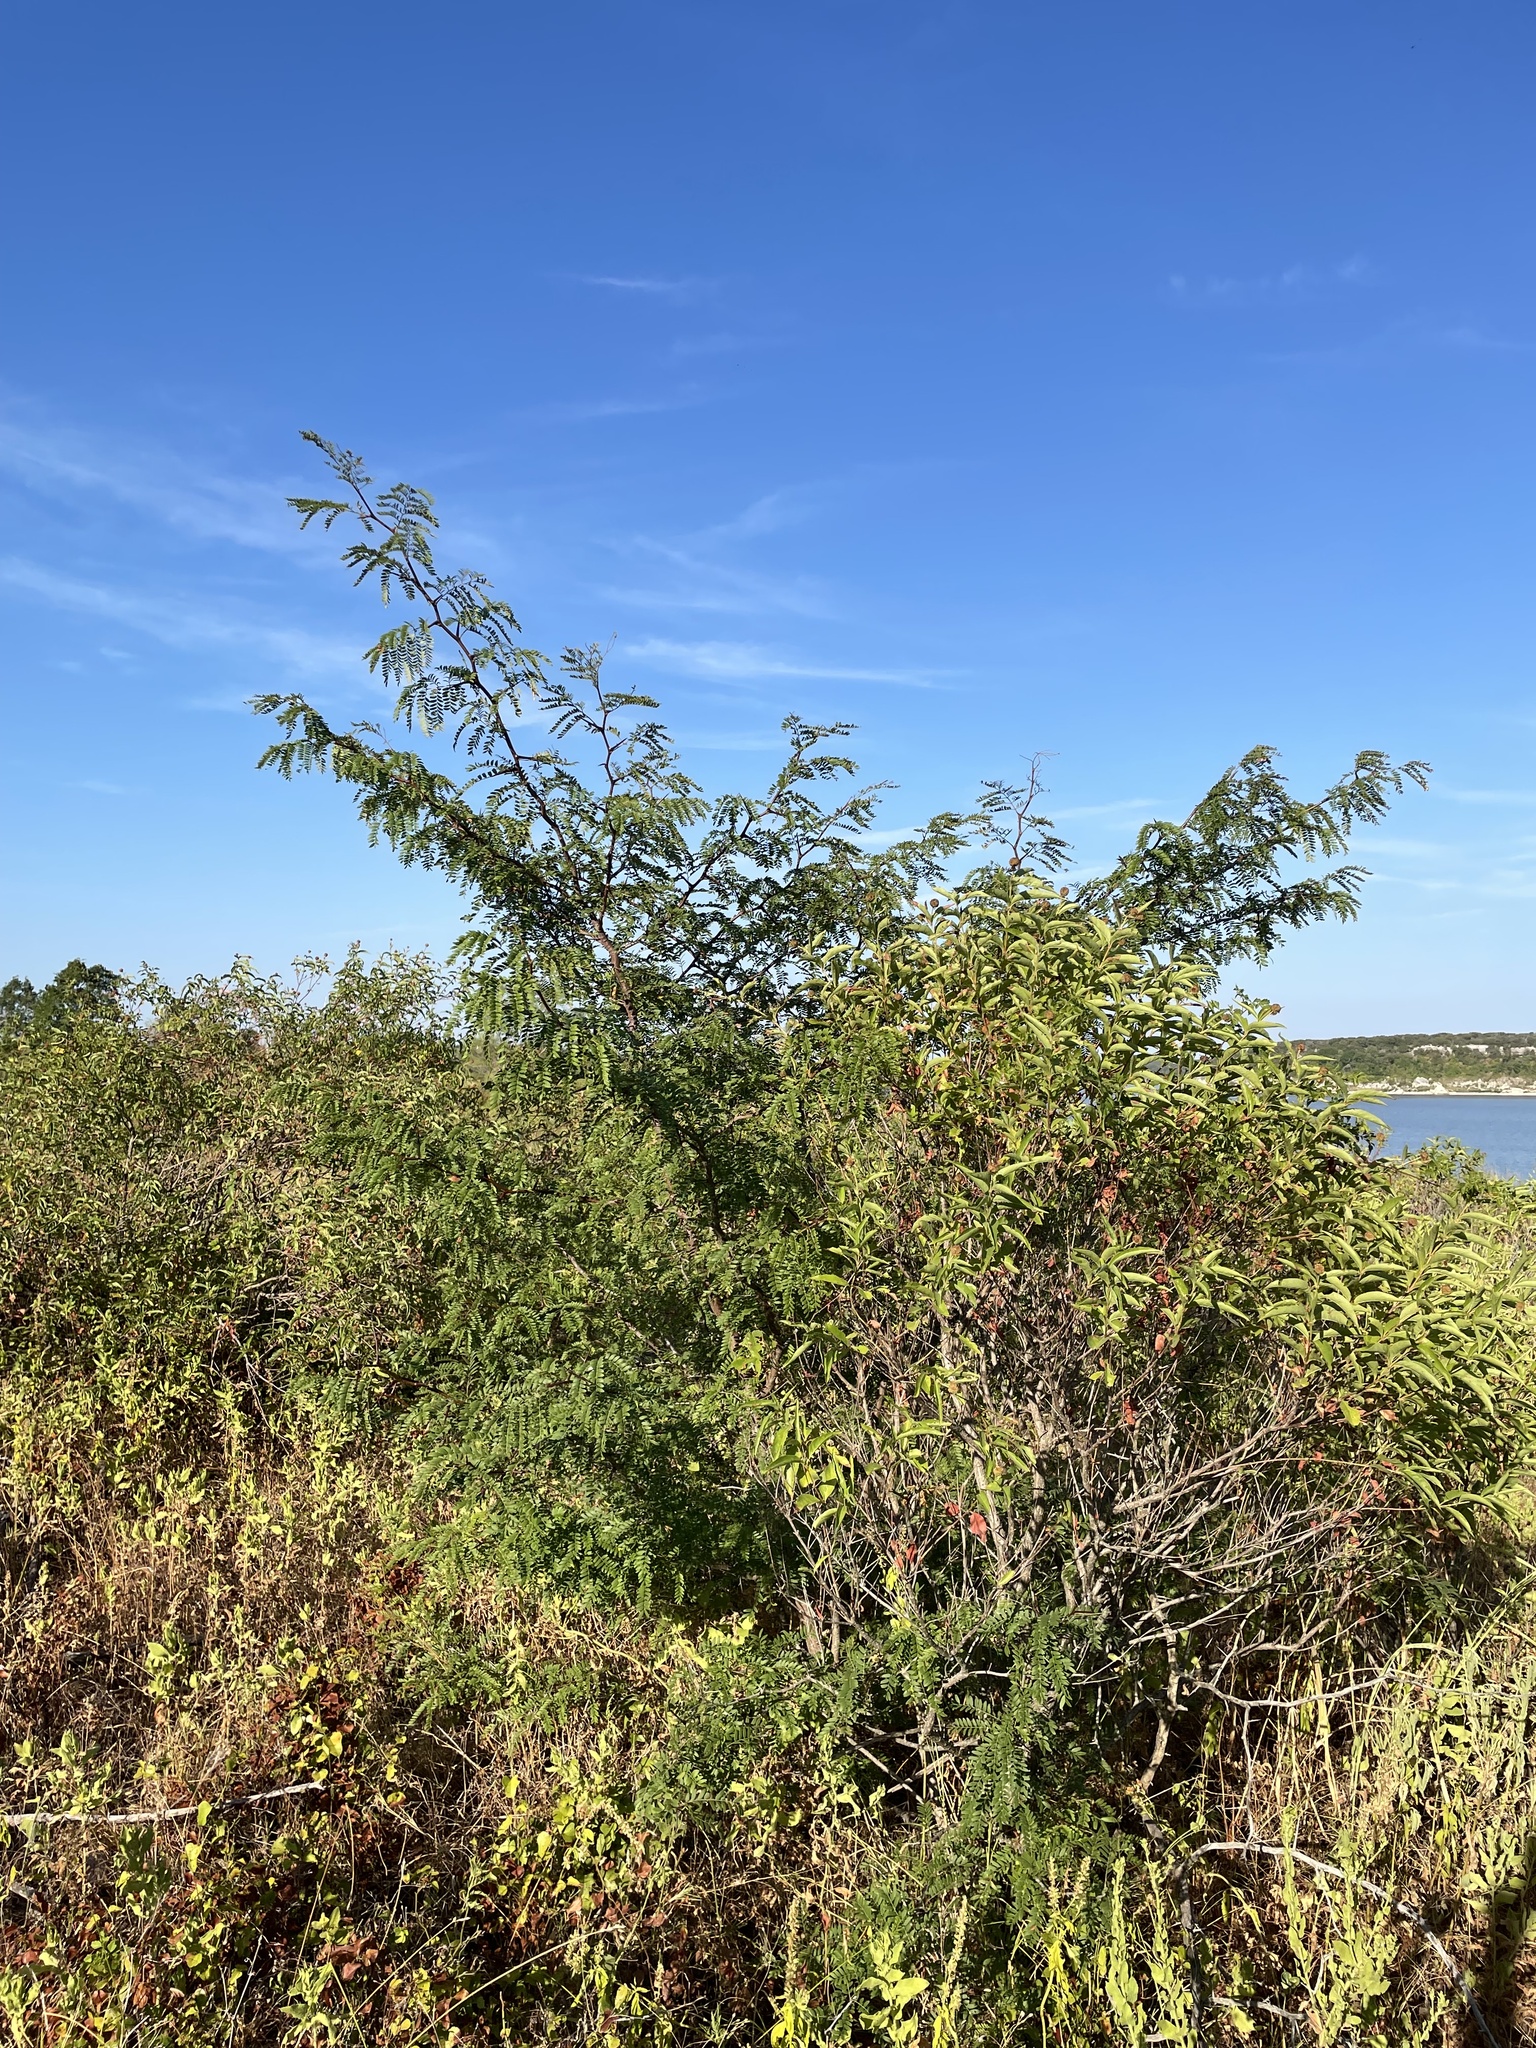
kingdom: Plantae
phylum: Tracheophyta
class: Magnoliopsida
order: Fabales
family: Fabaceae
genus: Gleditsia
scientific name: Gleditsia triacanthos
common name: Common honeylocust
